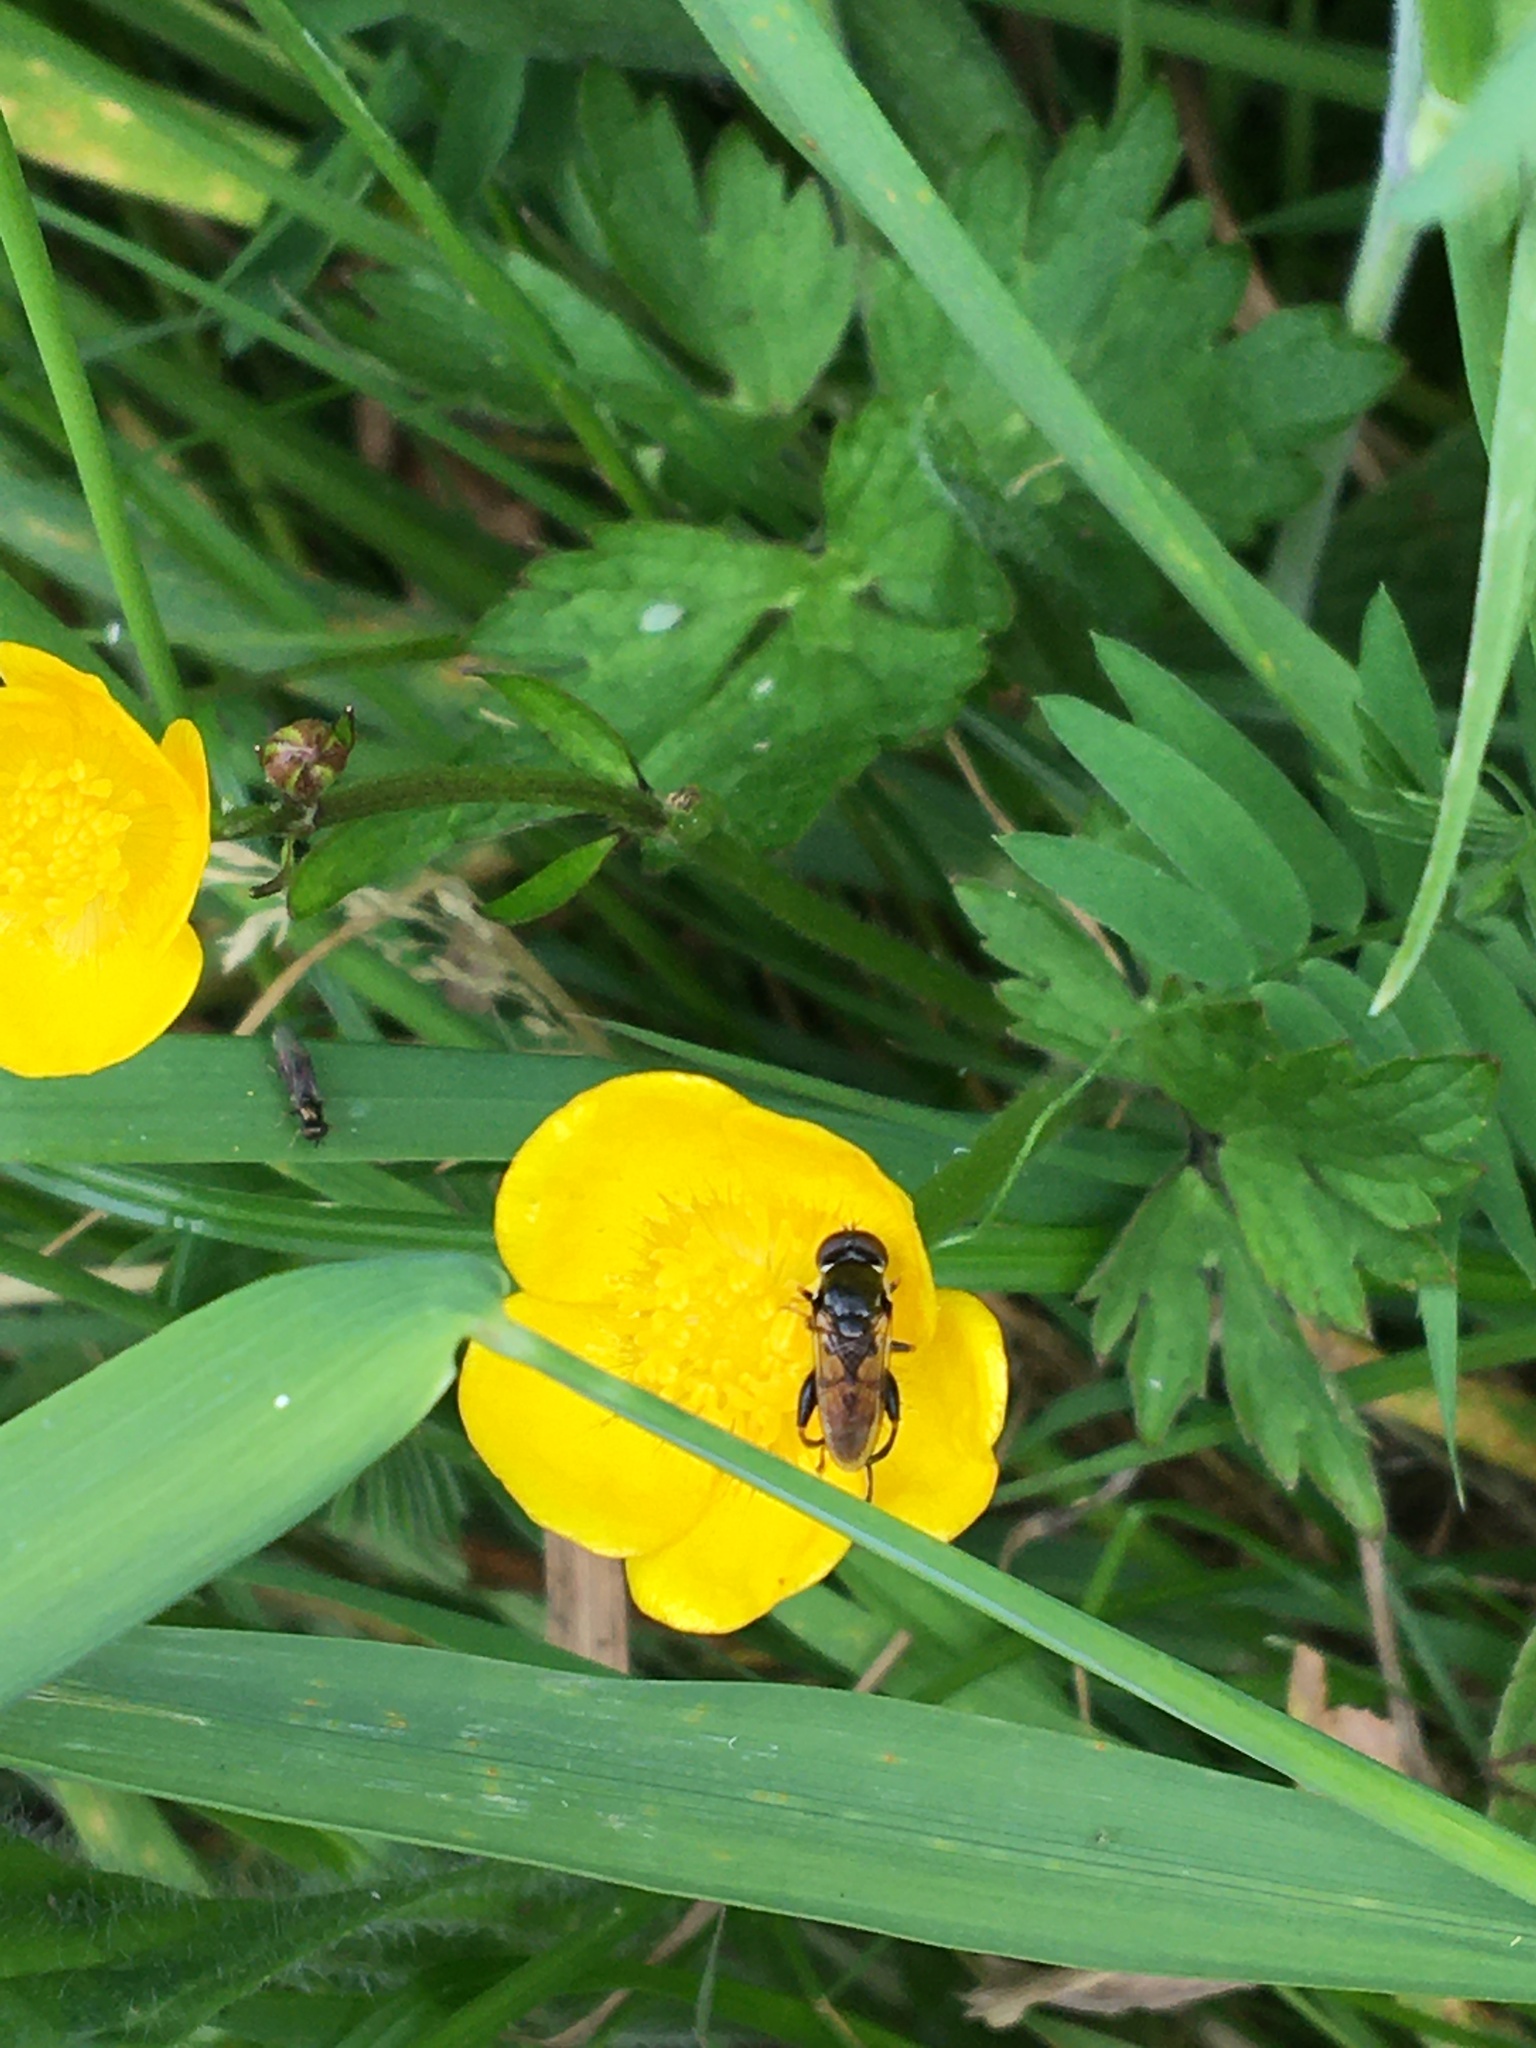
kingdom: Animalia
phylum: Arthropoda
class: Insecta
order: Diptera
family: Syrphidae
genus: Tropidia
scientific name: Tropidia scita
